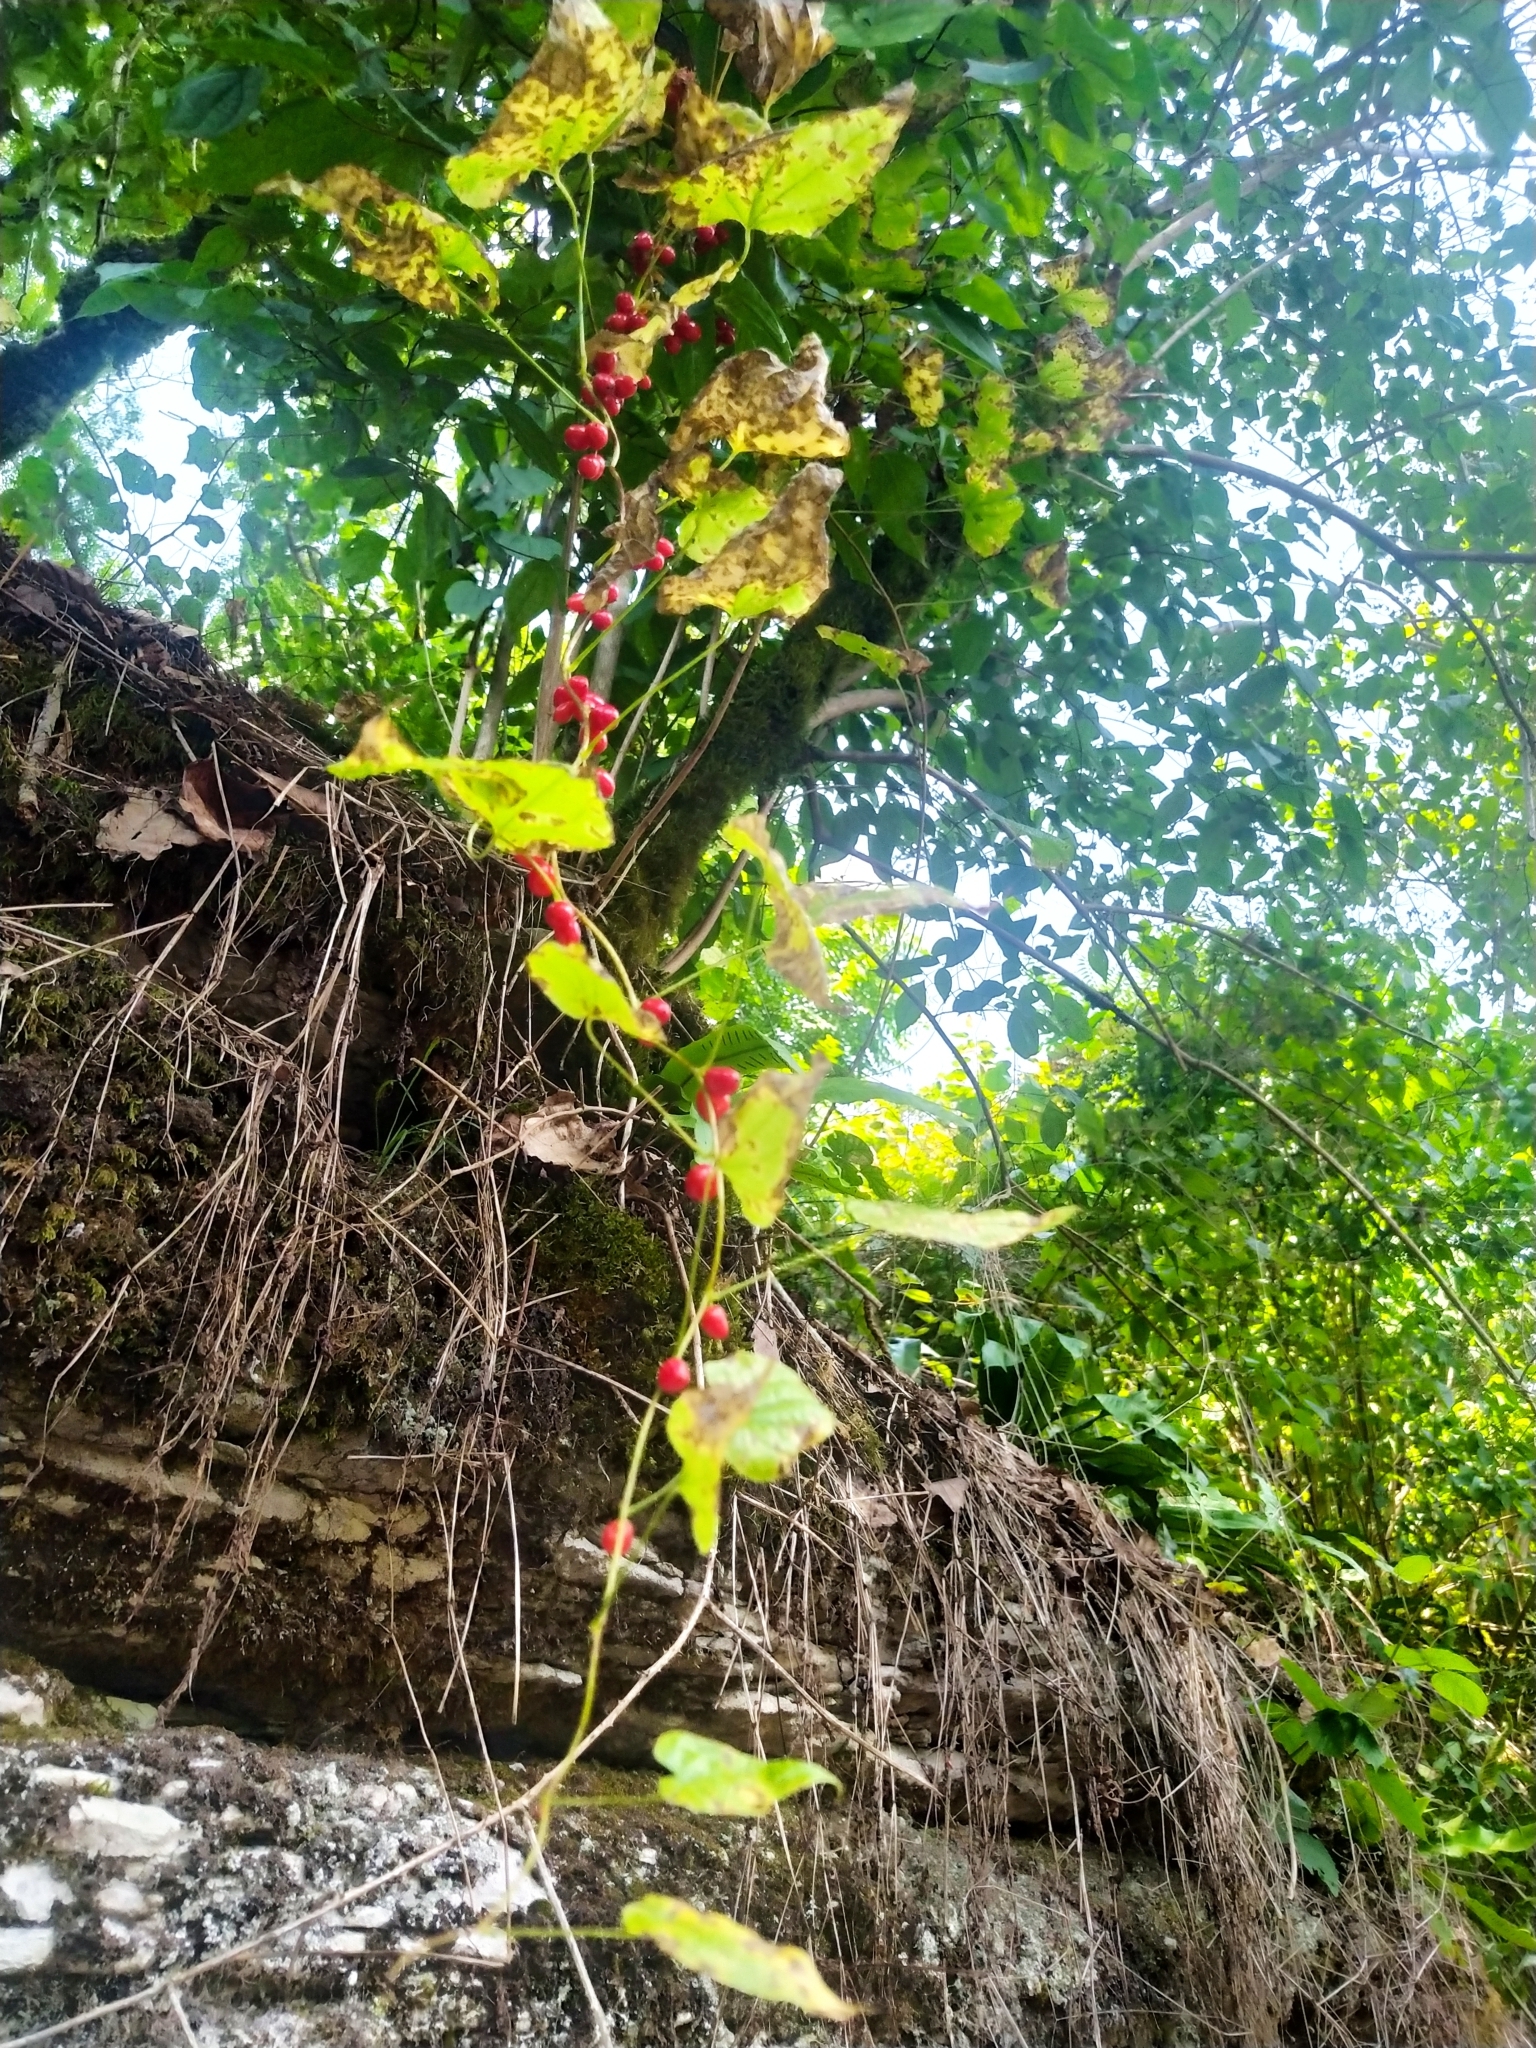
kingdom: Plantae
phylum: Tracheophyta
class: Liliopsida
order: Dioscoreales
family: Dioscoreaceae
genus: Dioscorea
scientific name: Dioscorea communis
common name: Black-bindweed
